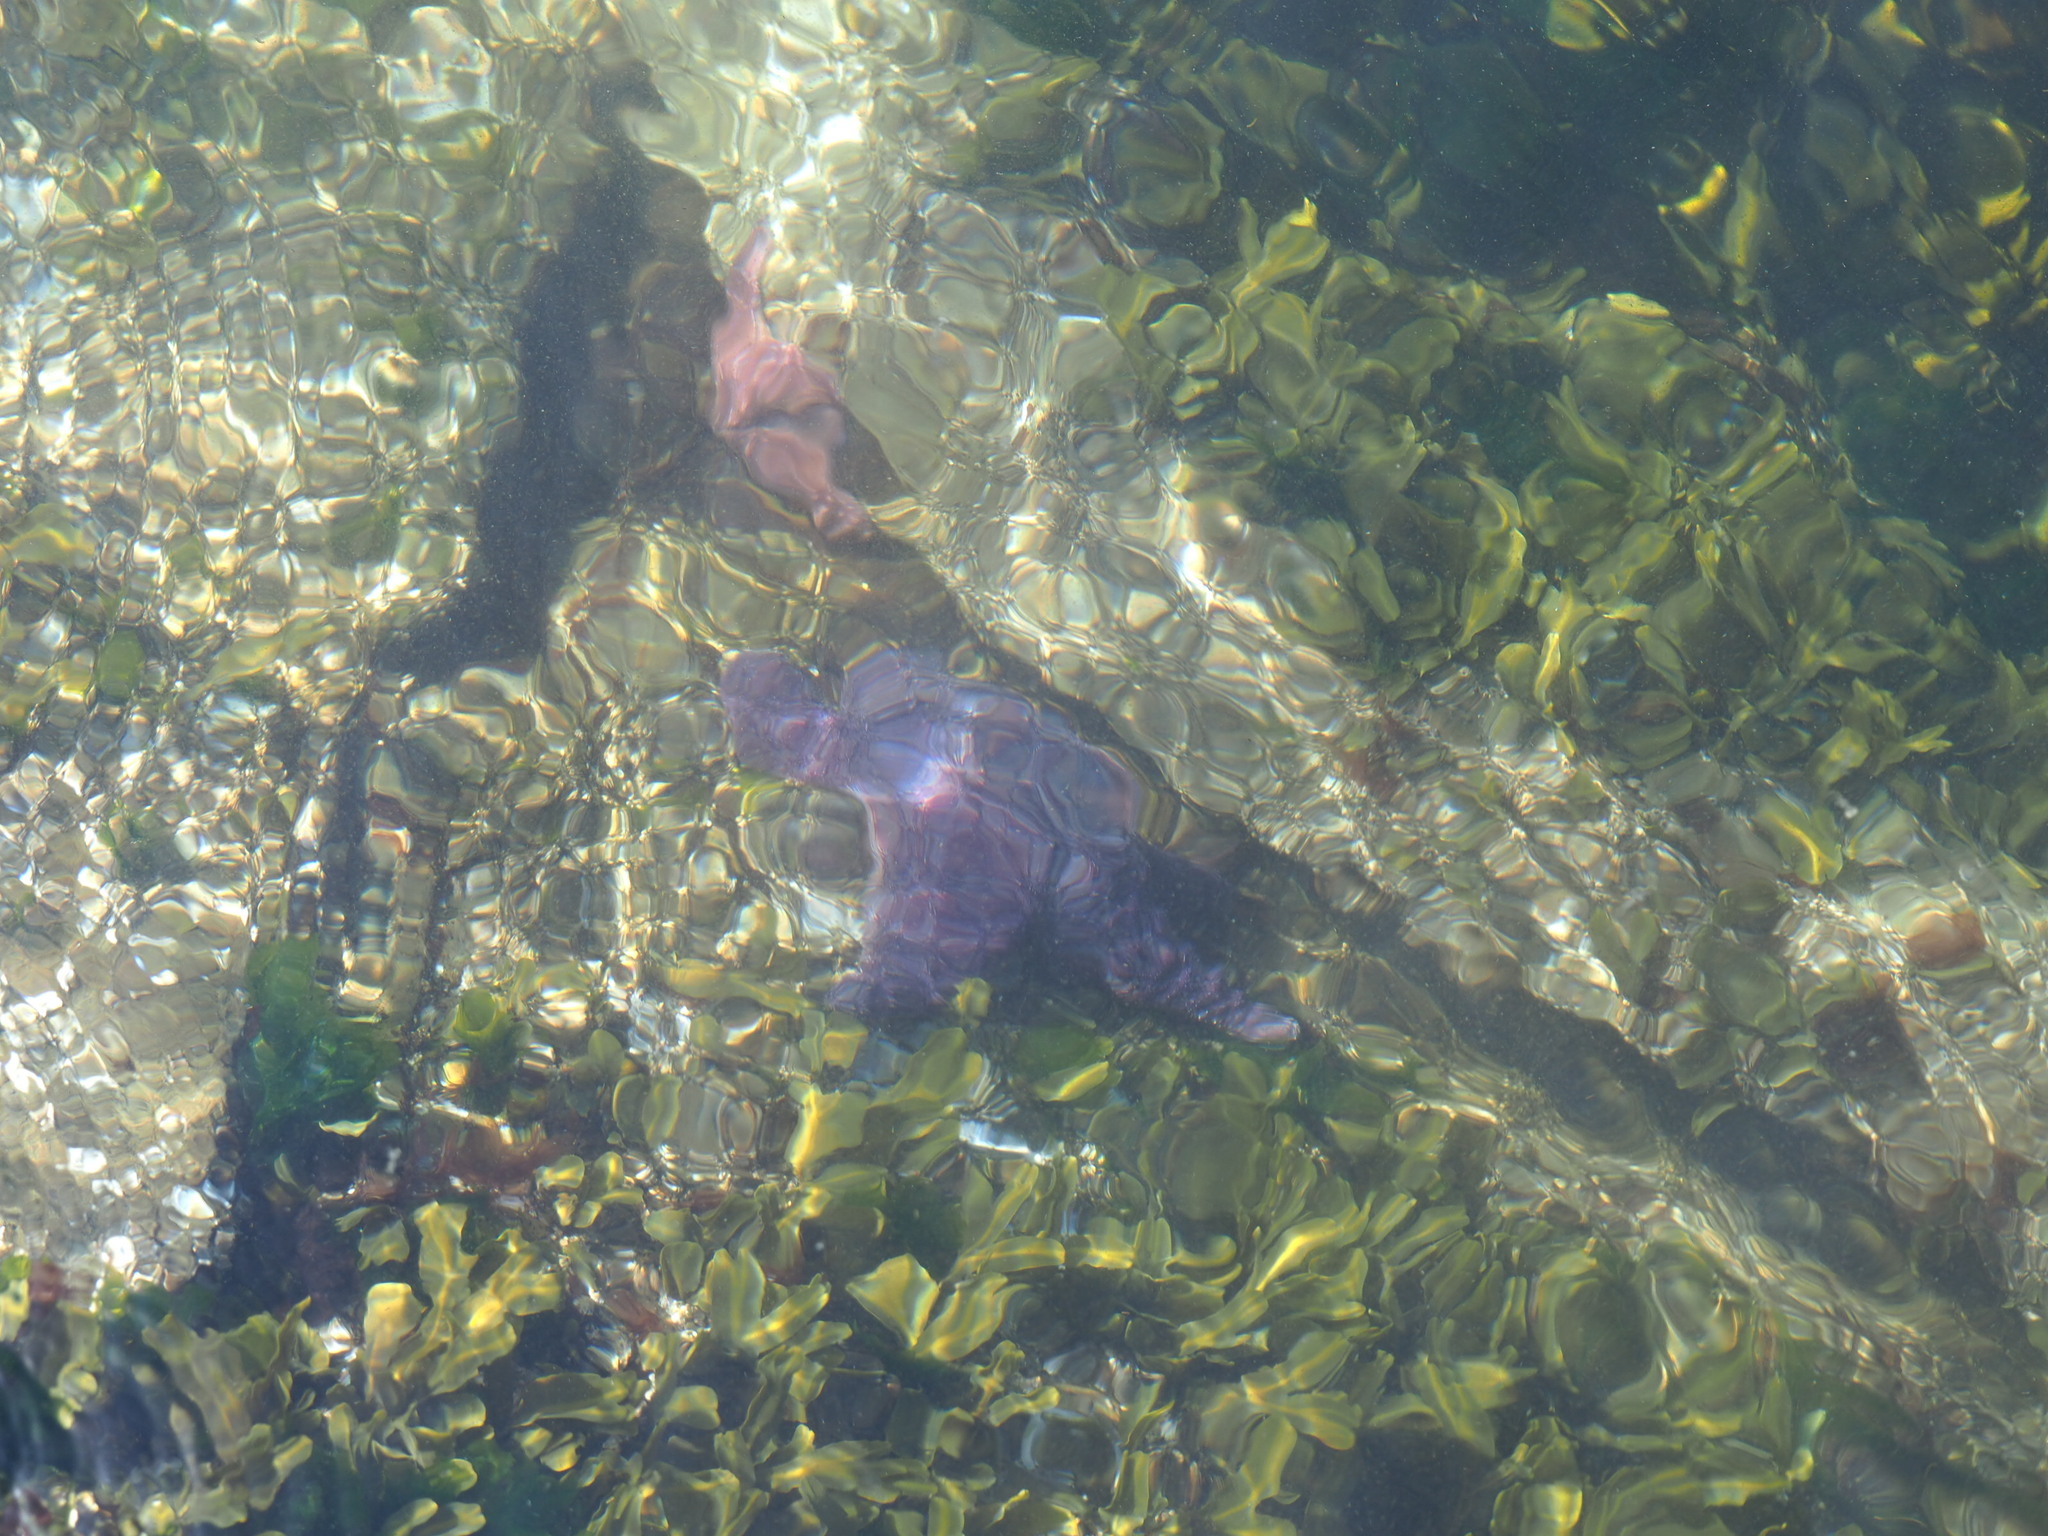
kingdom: Animalia
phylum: Echinodermata
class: Asteroidea
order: Forcipulatida
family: Asteriidae
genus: Pisaster
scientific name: Pisaster ochraceus
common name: Ochre stars
